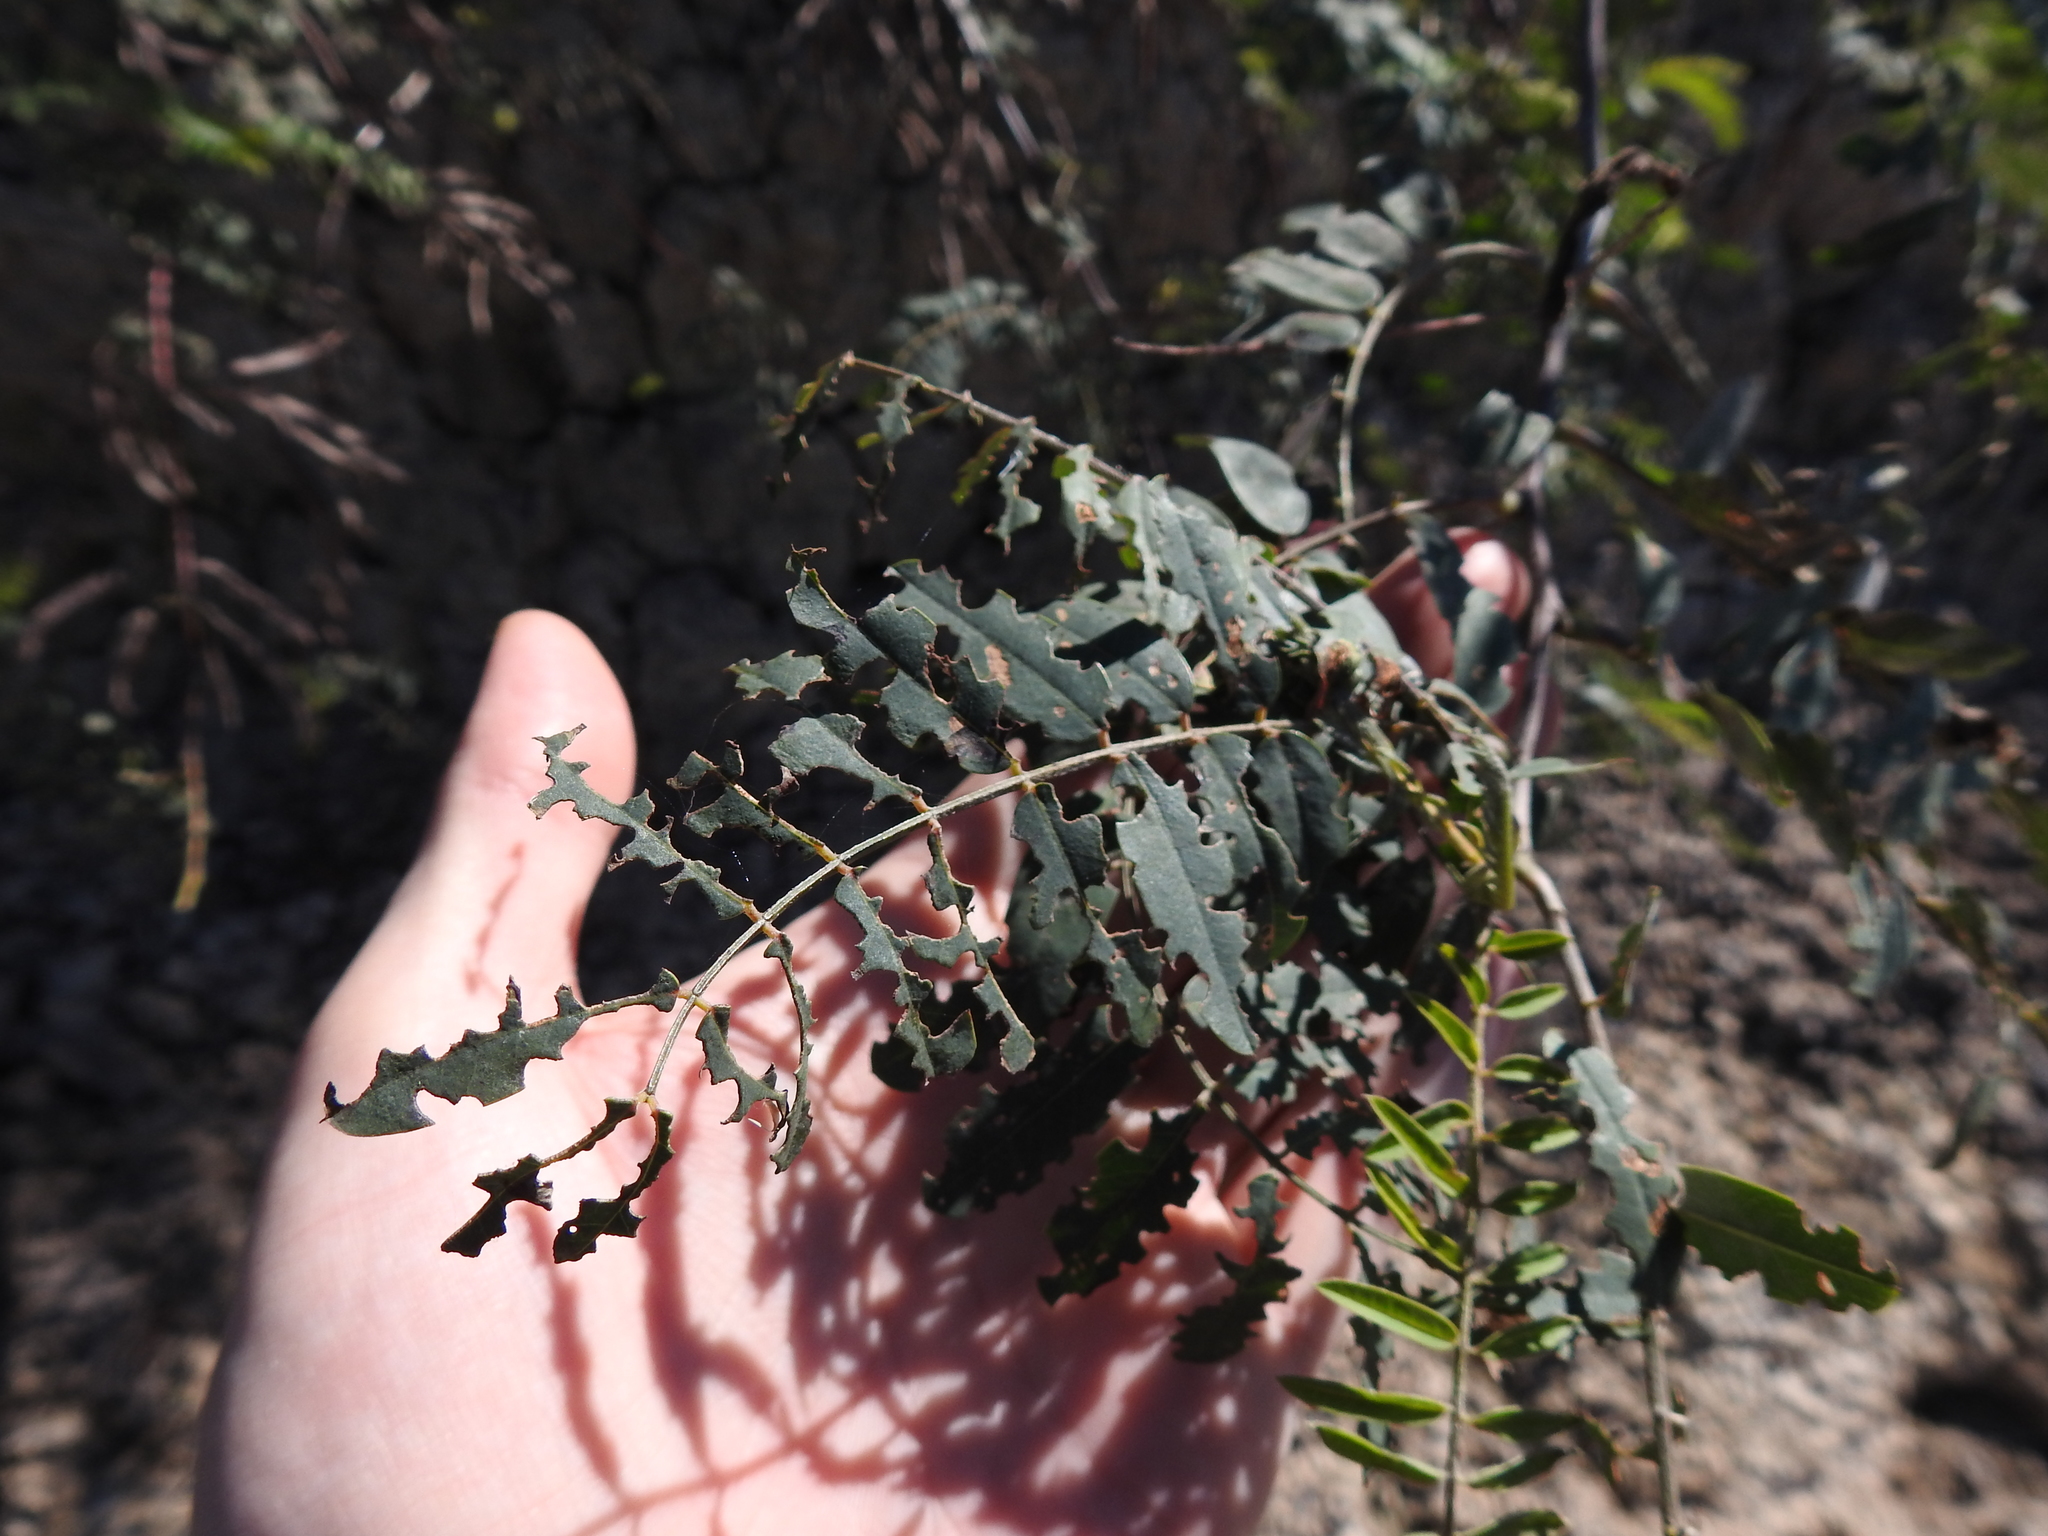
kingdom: Plantae
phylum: Tracheophyta
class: Magnoliopsida
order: Fabales
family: Fabaceae
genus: Sesbania
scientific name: Sesbania virgata
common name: Wand riverhemp
